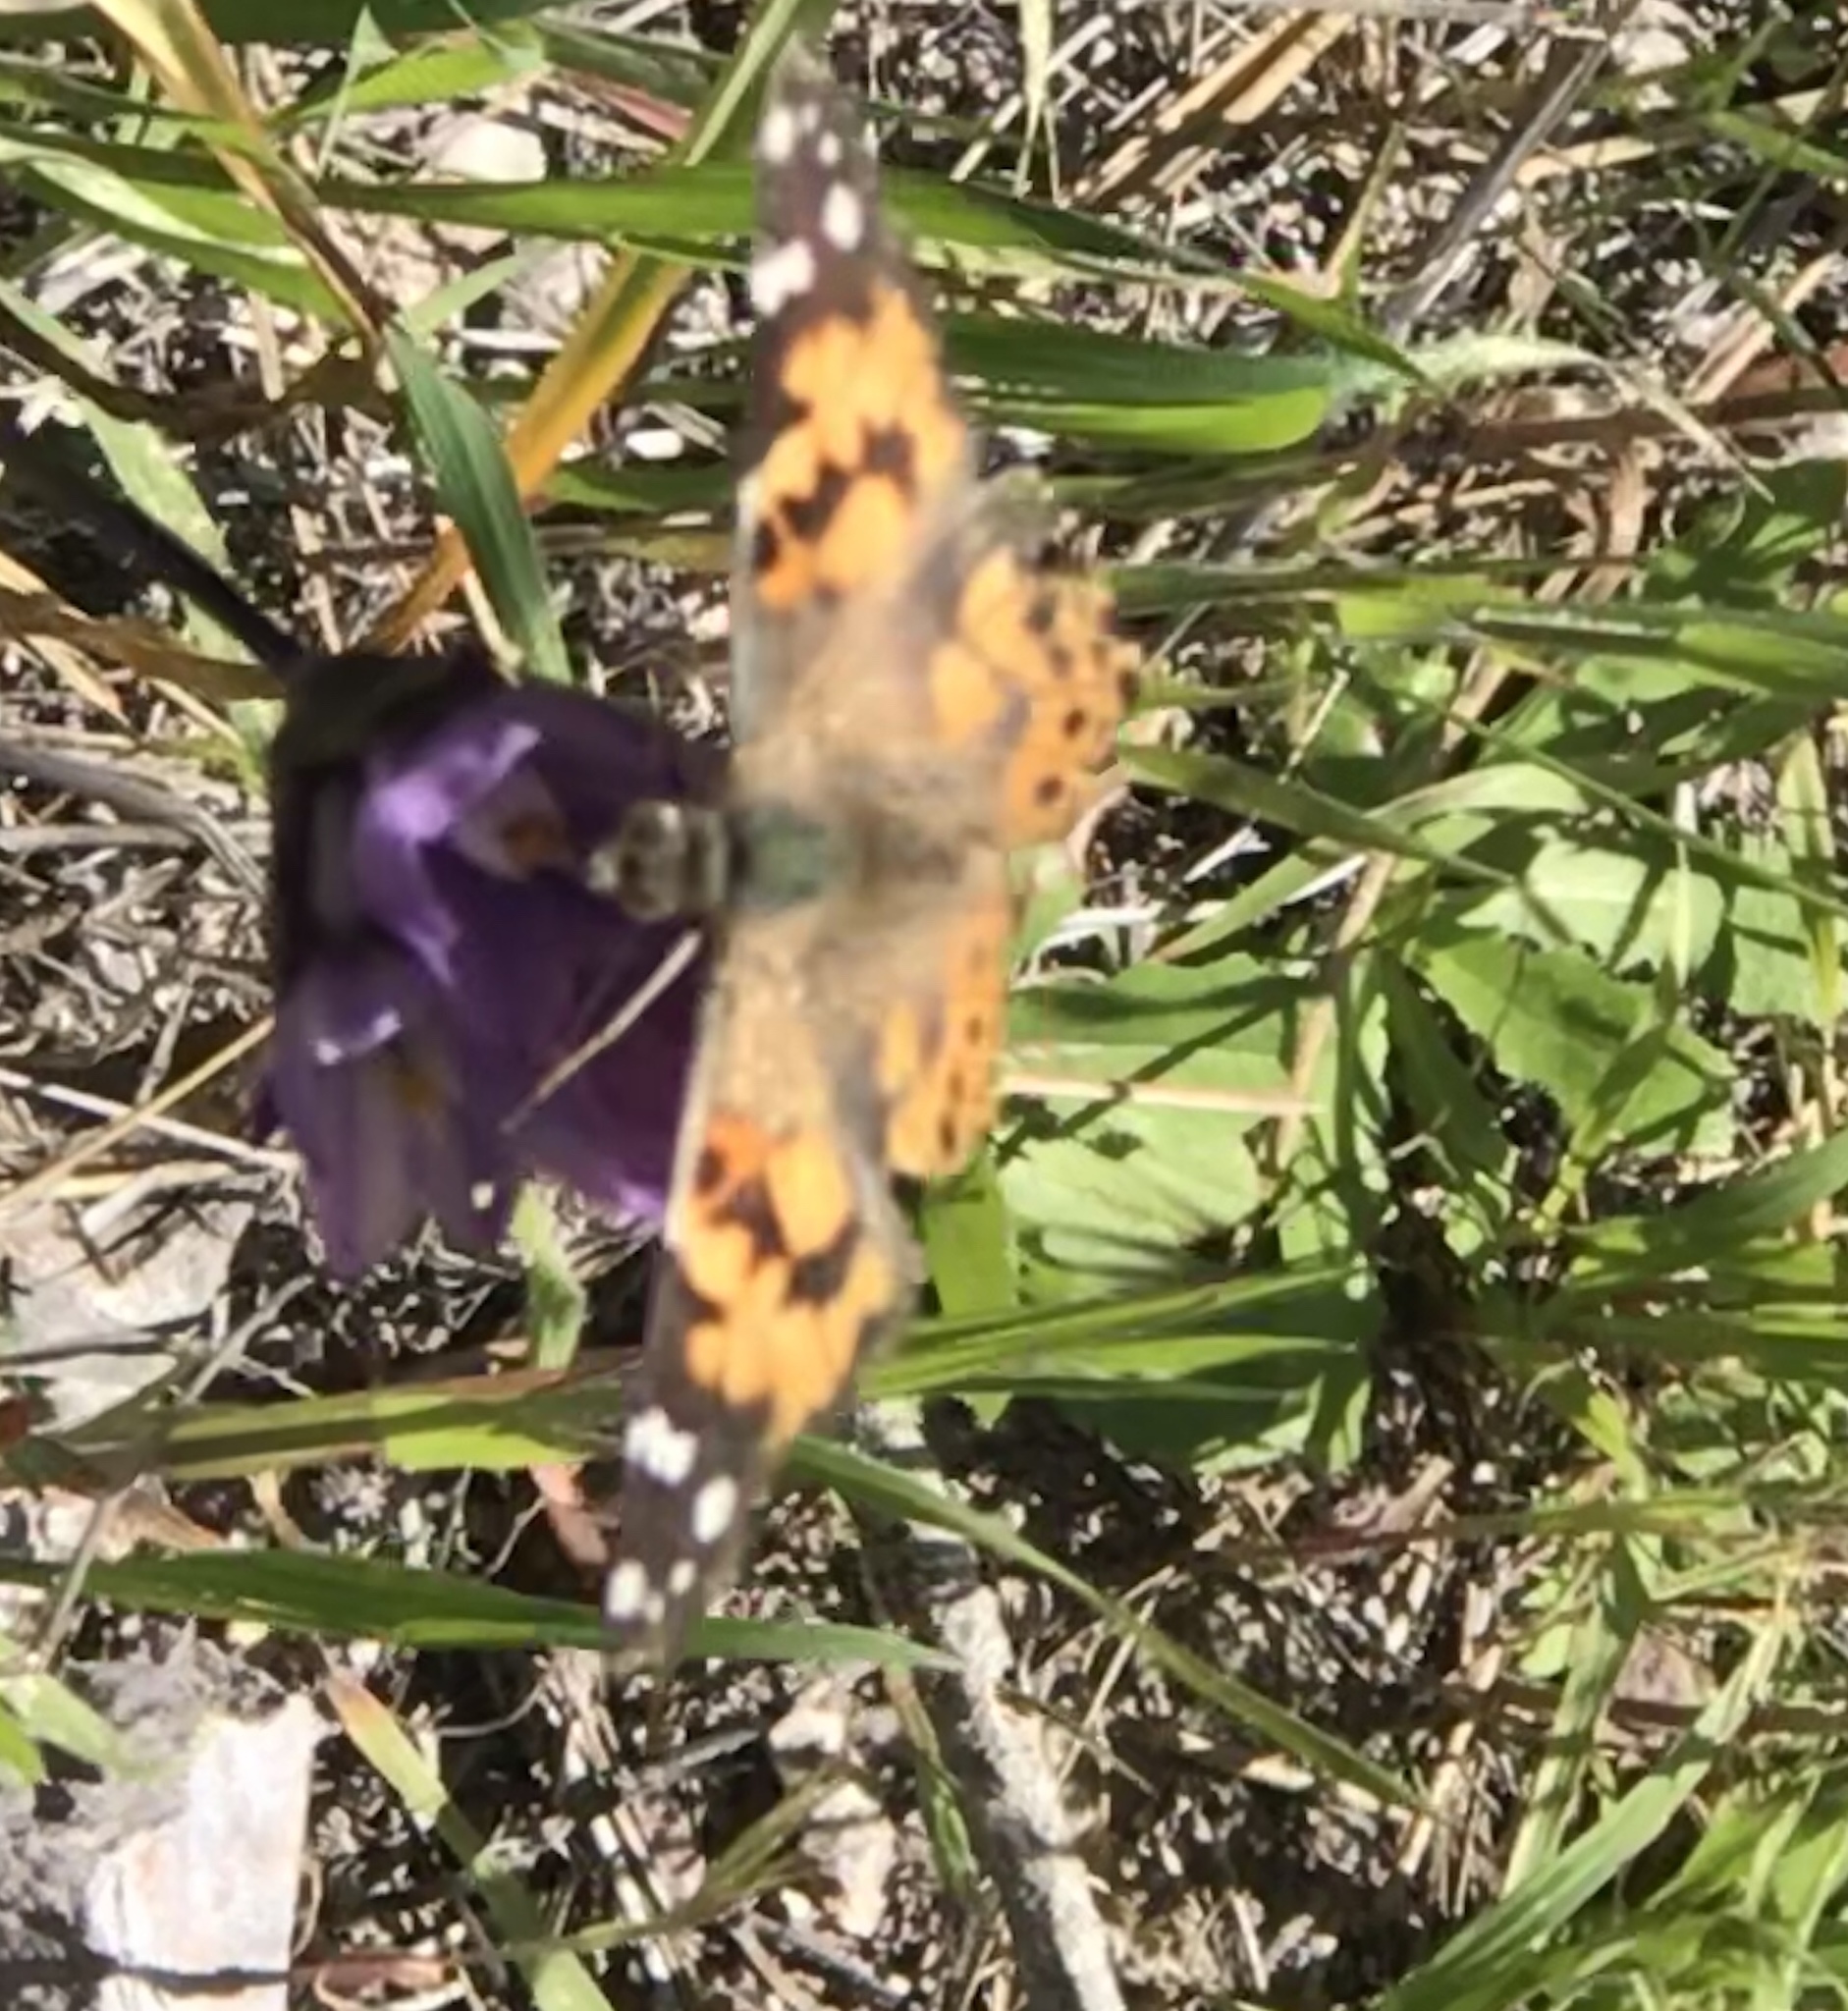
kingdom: Animalia
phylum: Arthropoda
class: Insecta
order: Lepidoptera
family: Nymphalidae
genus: Vanessa
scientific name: Vanessa cardui
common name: Painted lady
